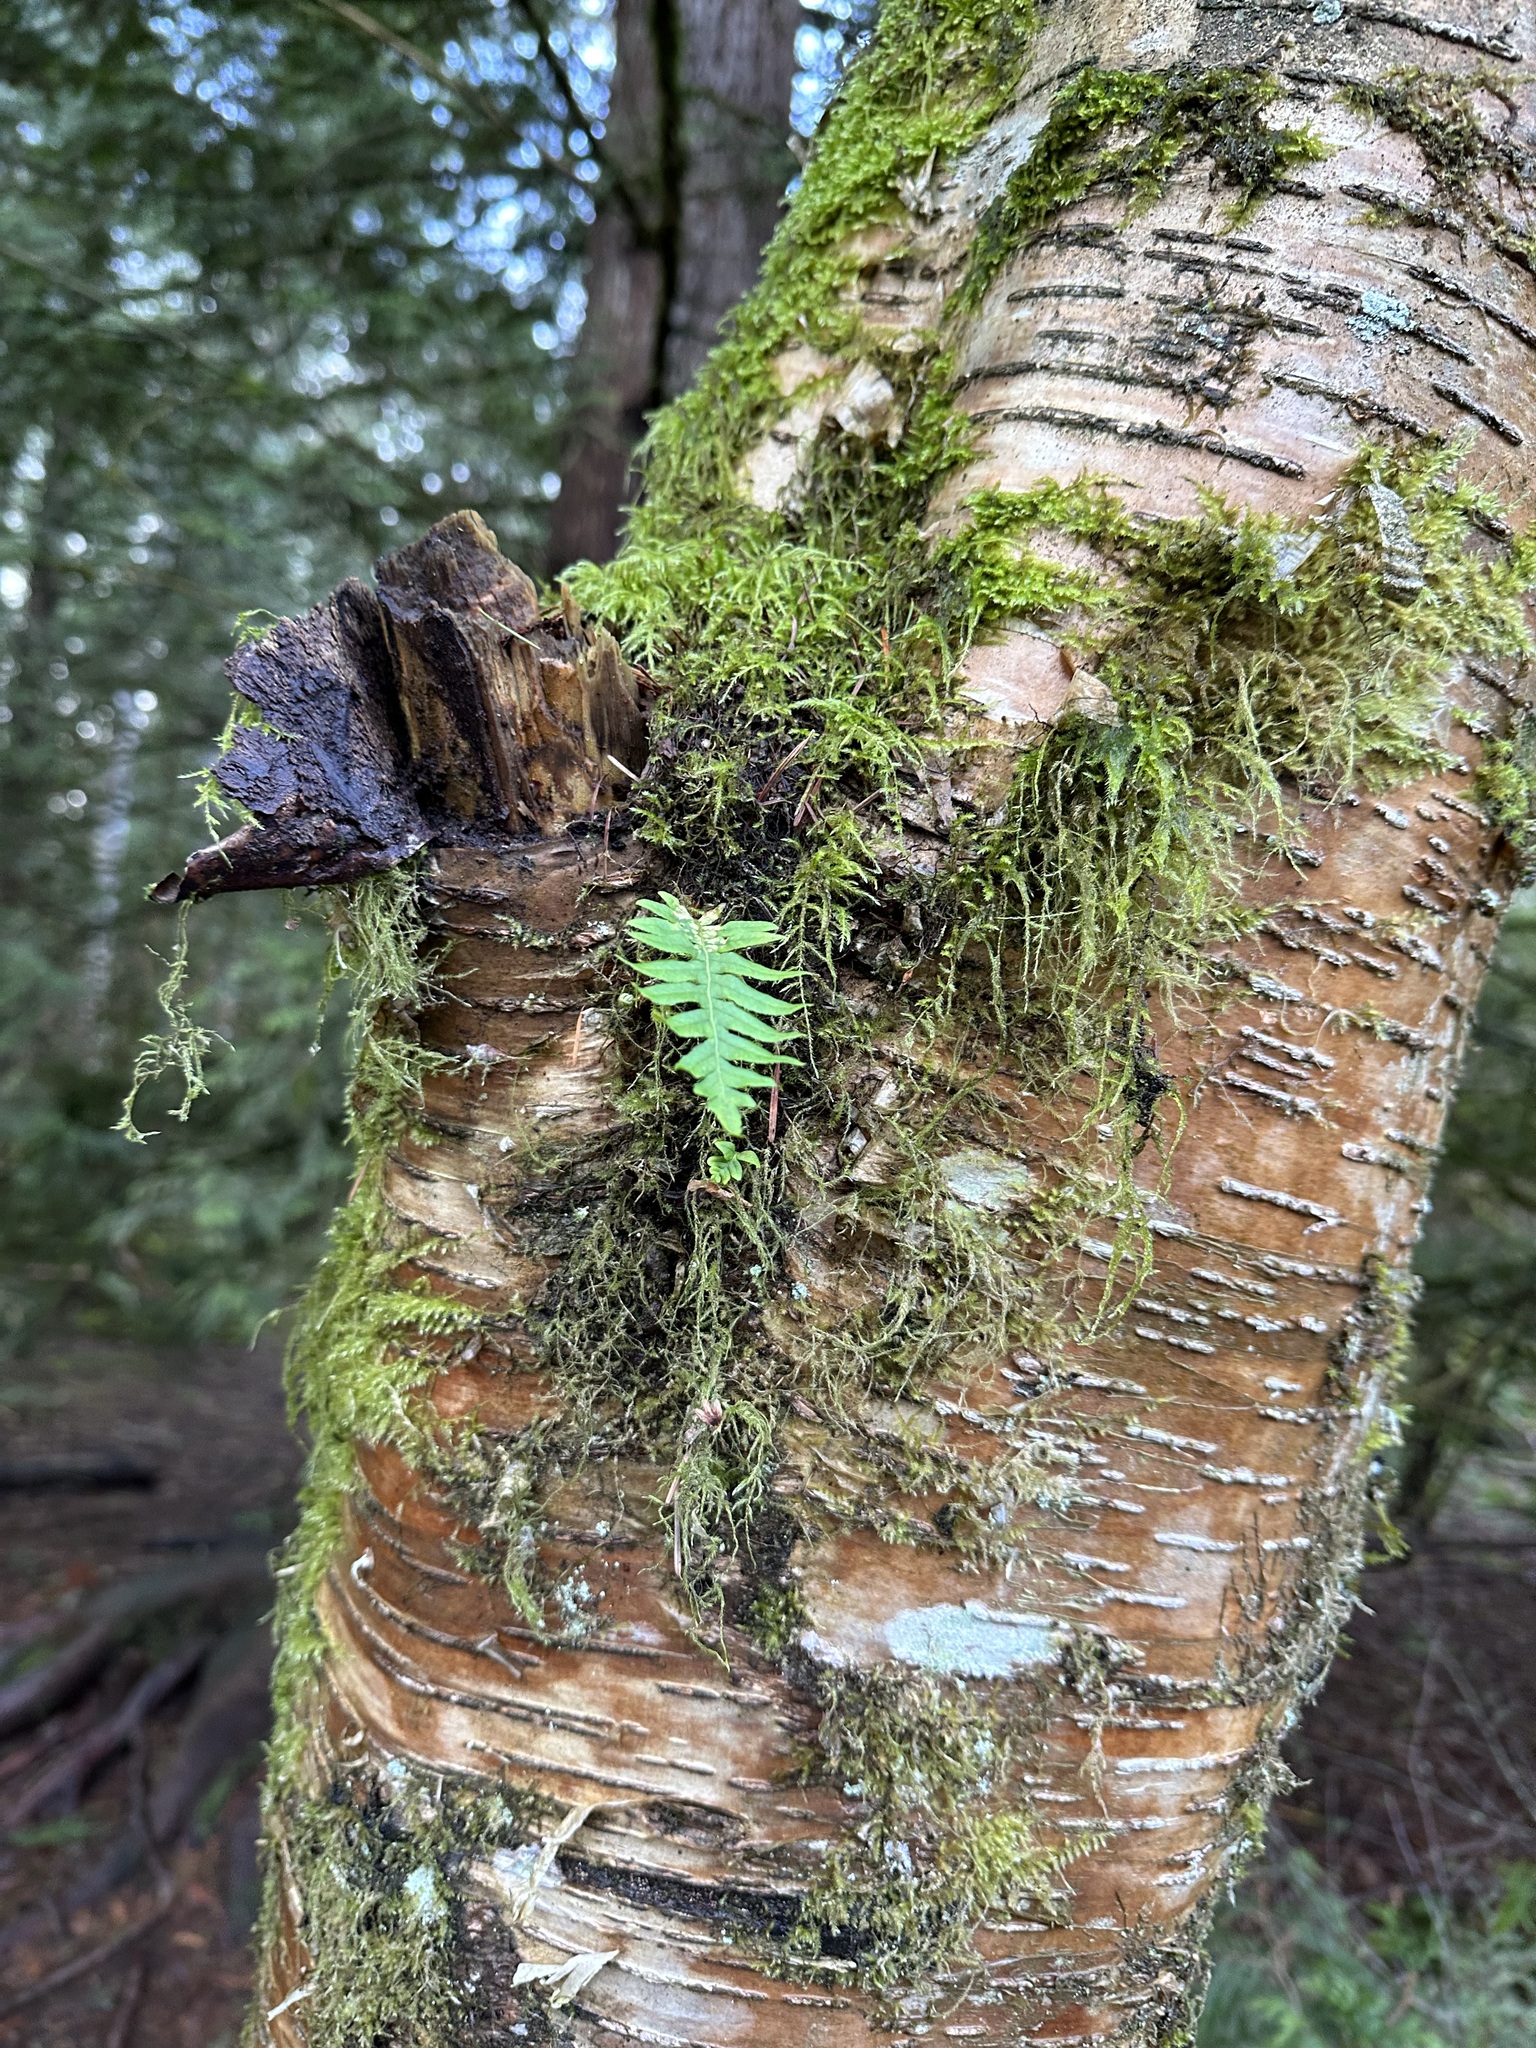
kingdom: Plantae
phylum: Tracheophyta
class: Polypodiopsida
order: Polypodiales
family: Polypodiaceae
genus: Polypodium
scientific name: Polypodium glycyrrhiza
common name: Licorice fern
